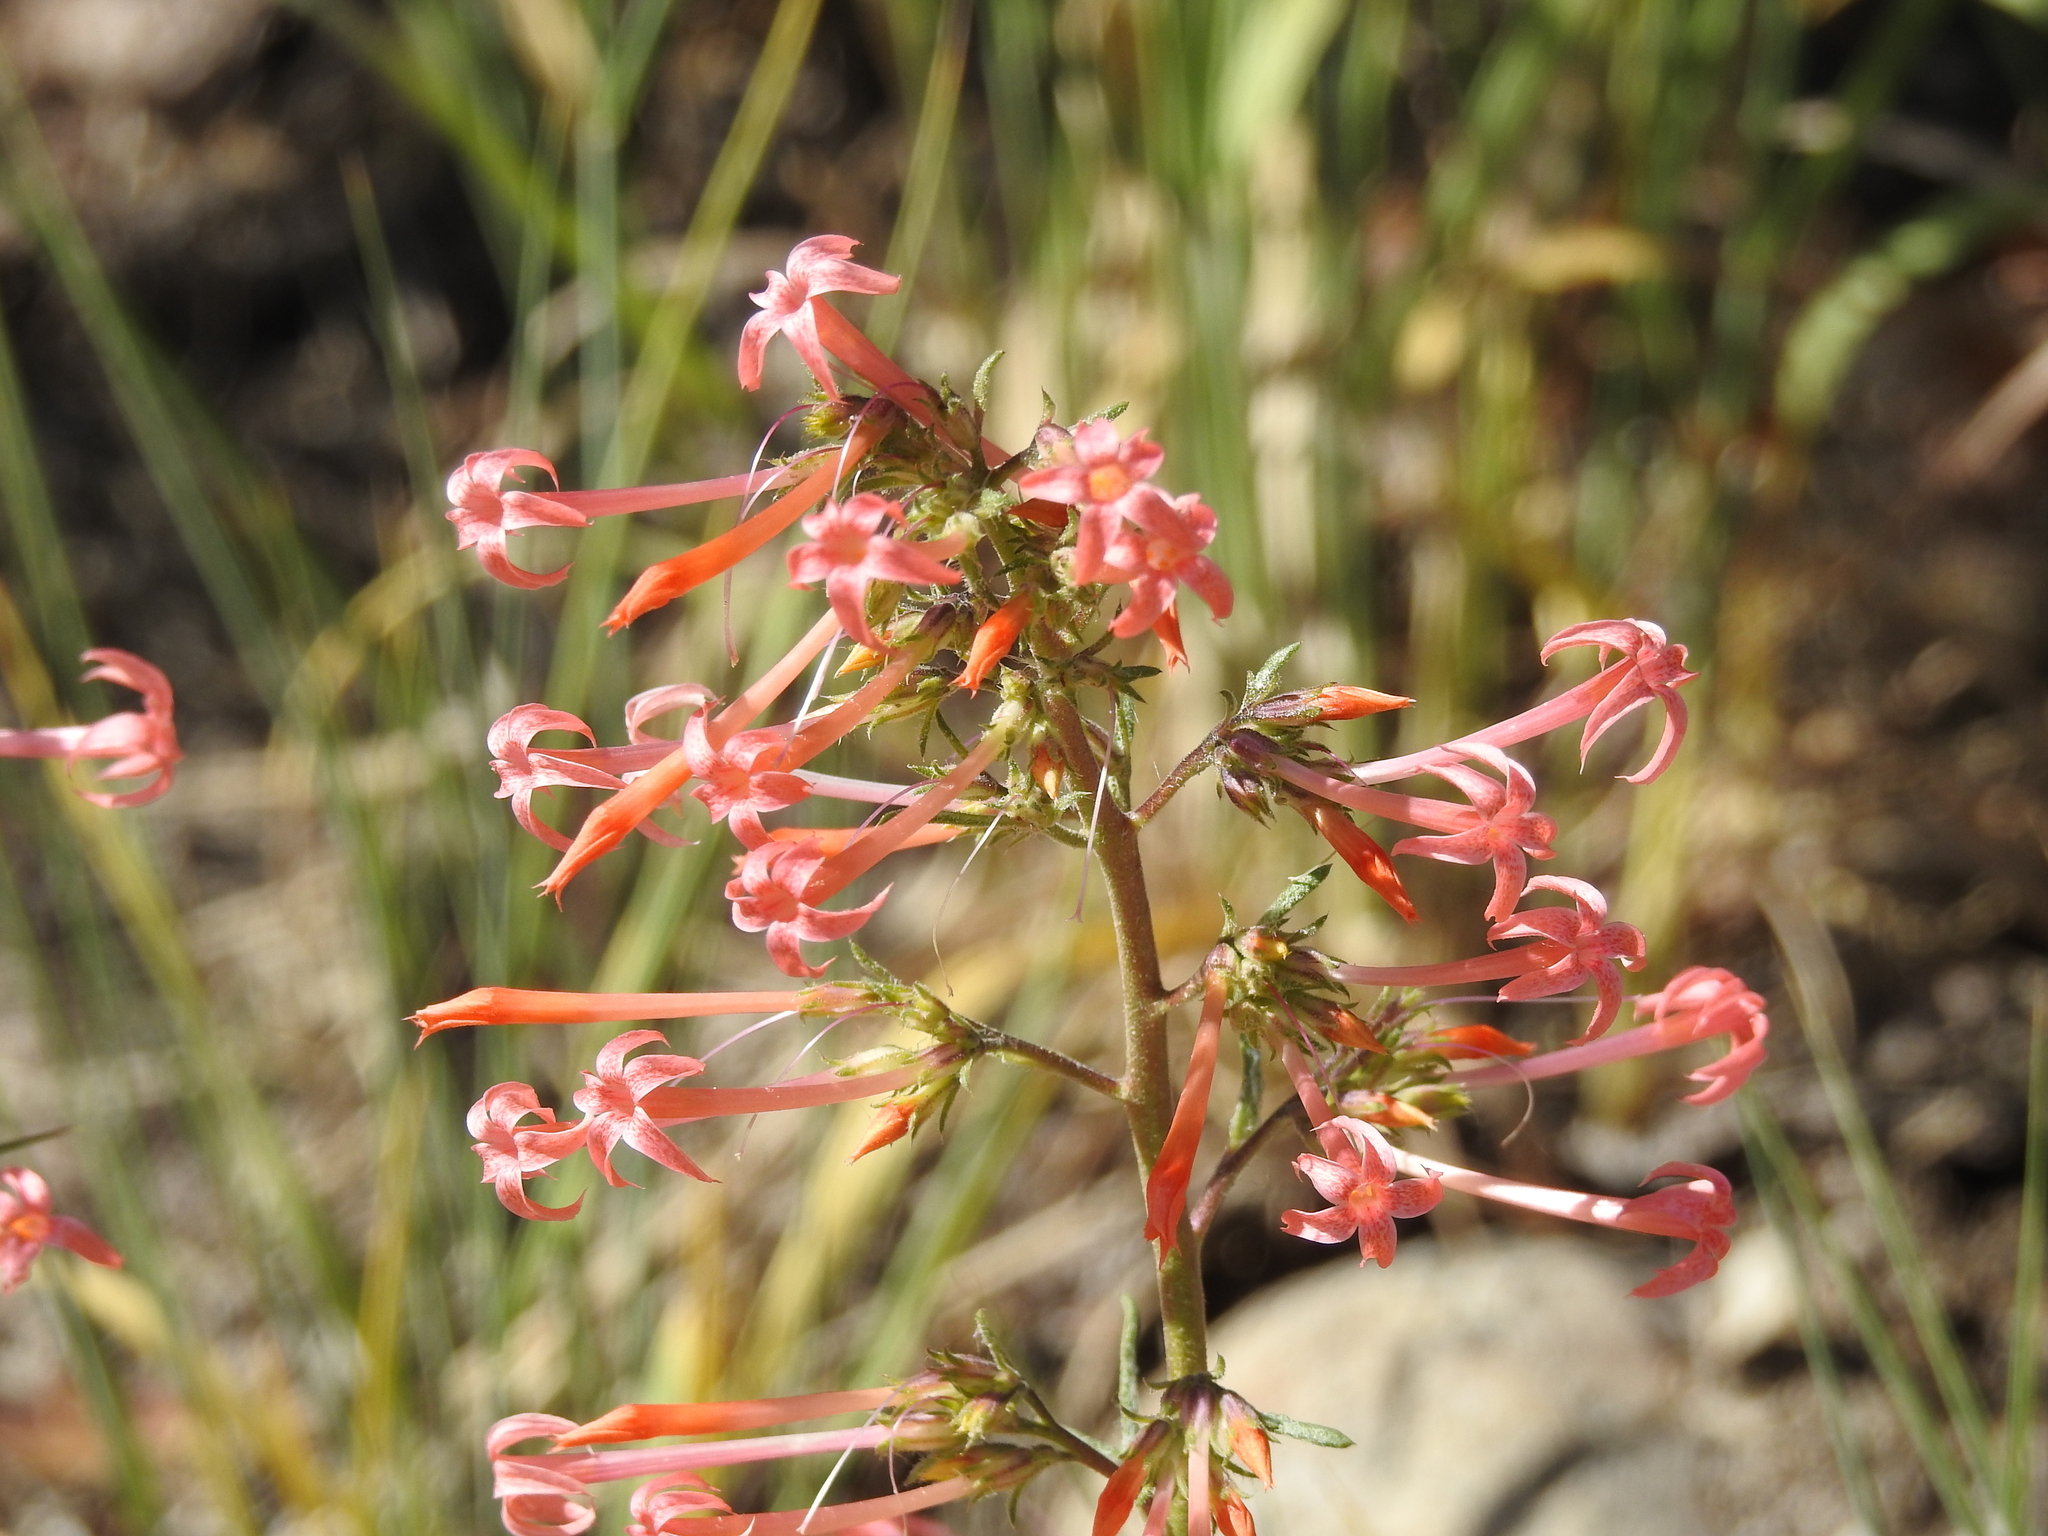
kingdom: Plantae
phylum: Tracheophyta
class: Magnoliopsida
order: Ericales
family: Polemoniaceae
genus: Ipomopsis
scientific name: Ipomopsis tenuituba
